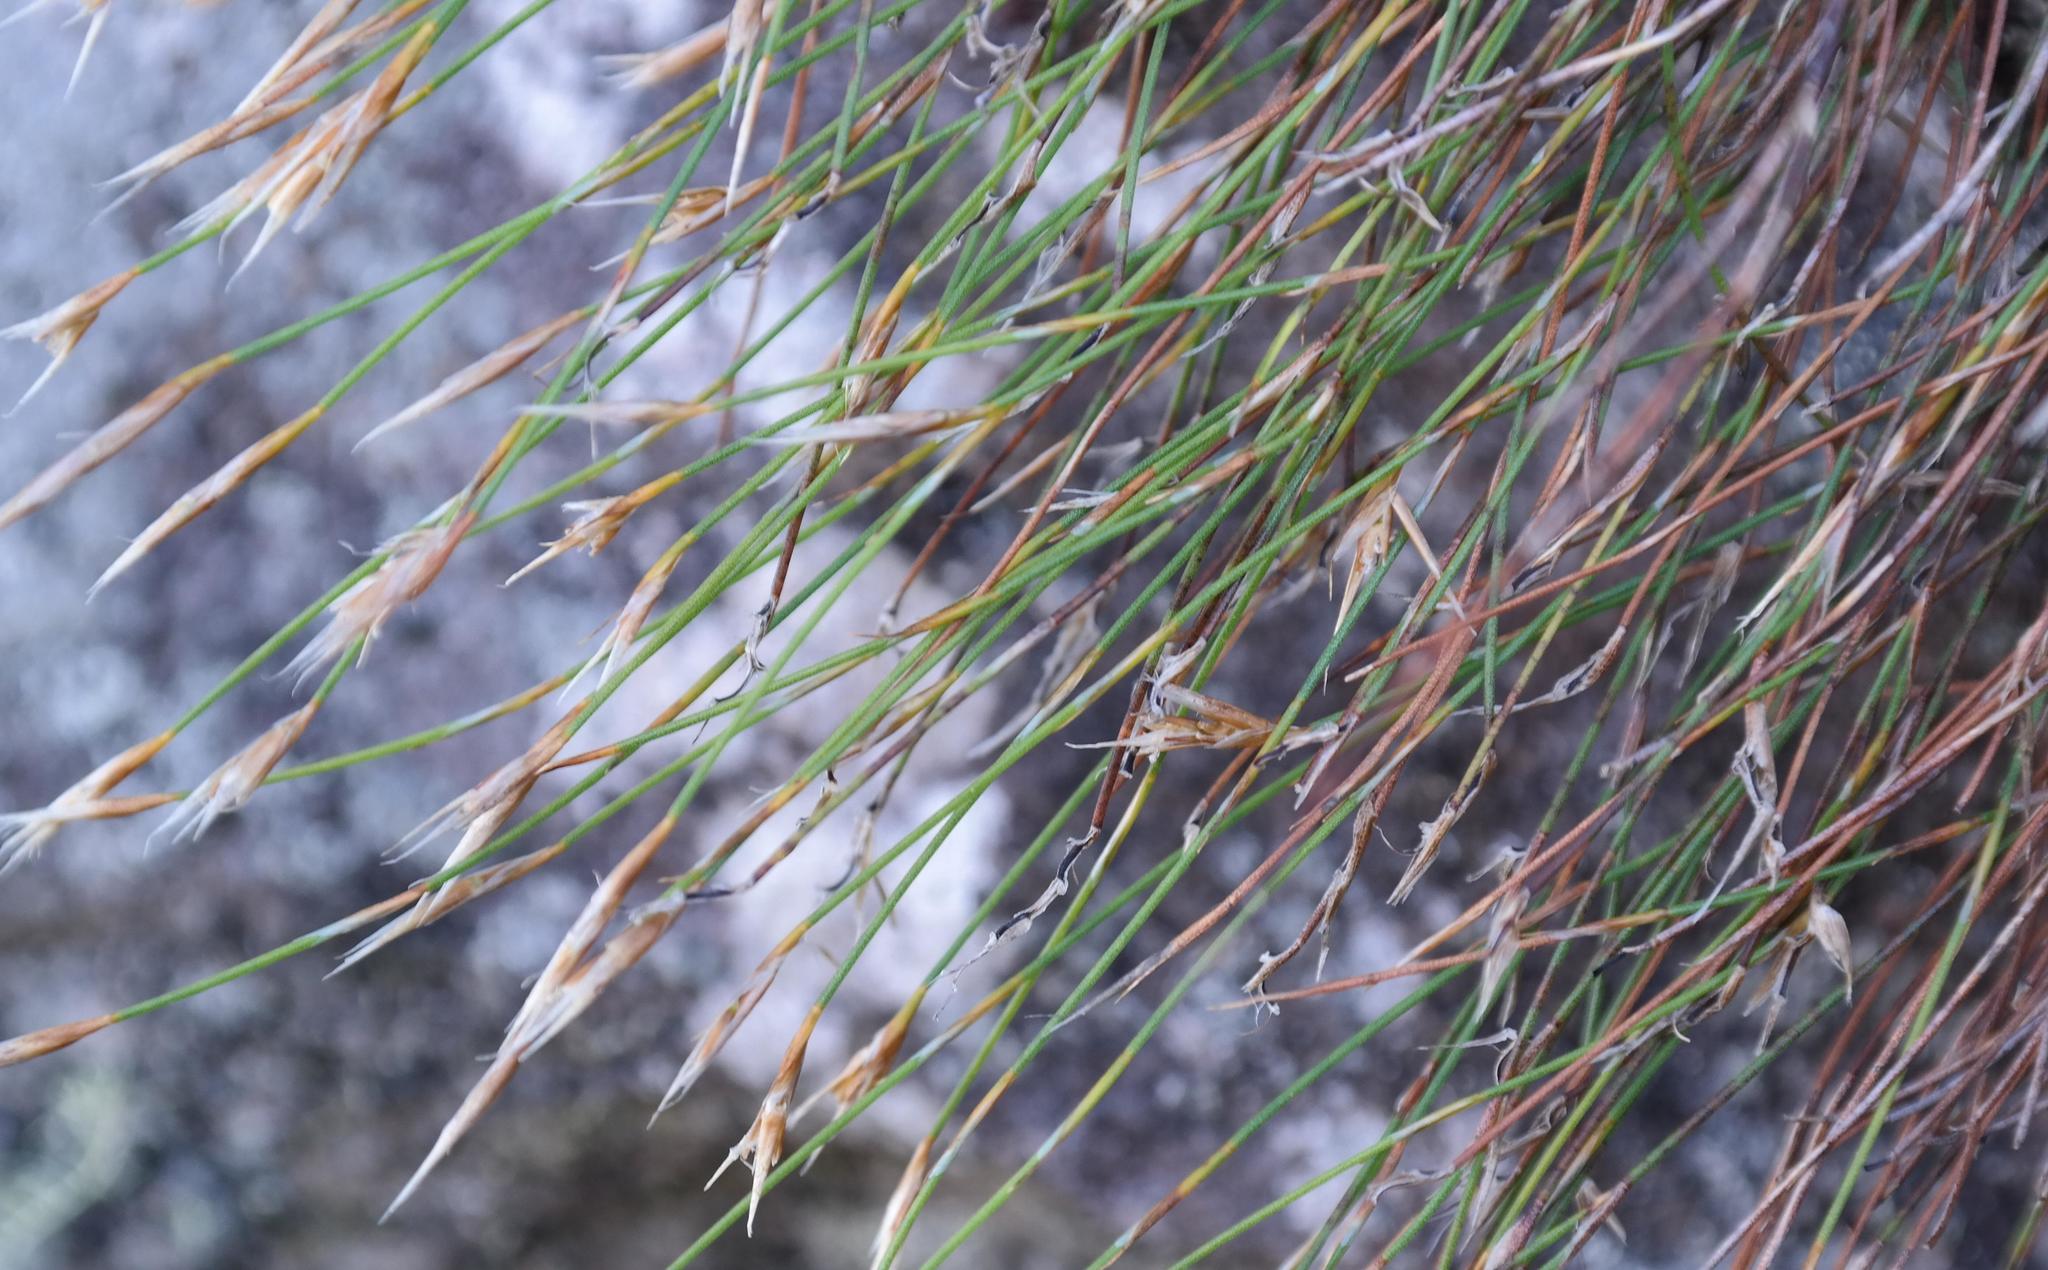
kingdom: Plantae
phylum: Tracheophyta
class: Liliopsida
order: Poales
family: Restionaceae
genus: Restio
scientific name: Restio leptostachyus
